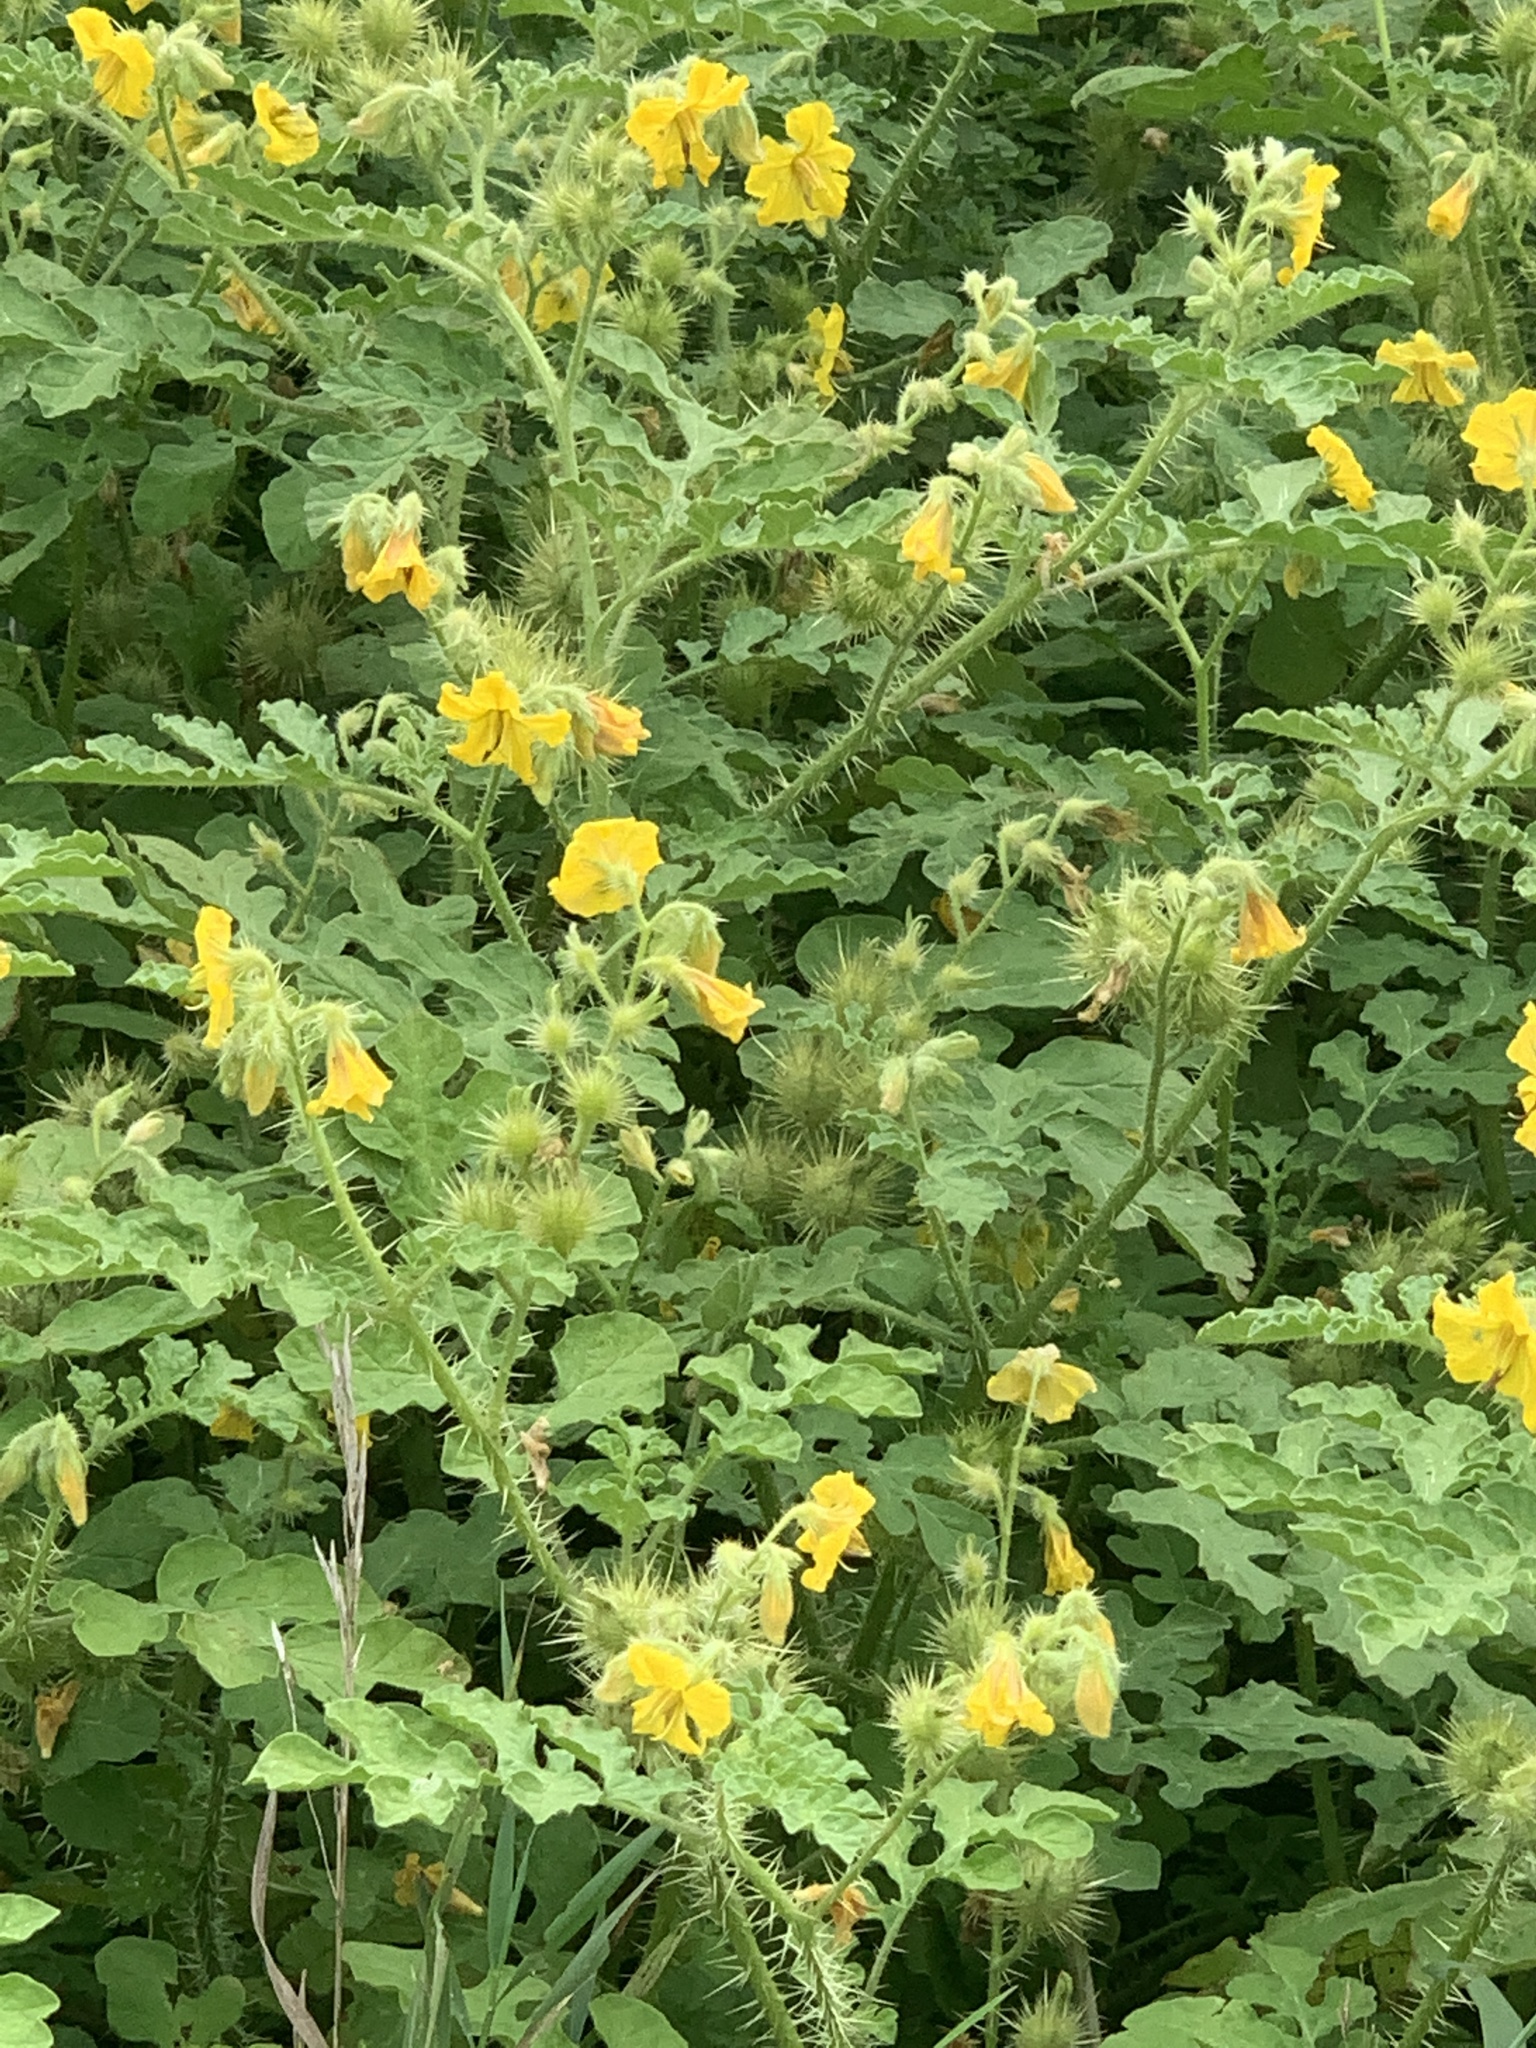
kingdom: Plantae
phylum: Tracheophyta
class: Magnoliopsida
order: Solanales
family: Solanaceae
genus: Solanum
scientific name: Solanum angustifolium
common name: Buffalobur nightshade
